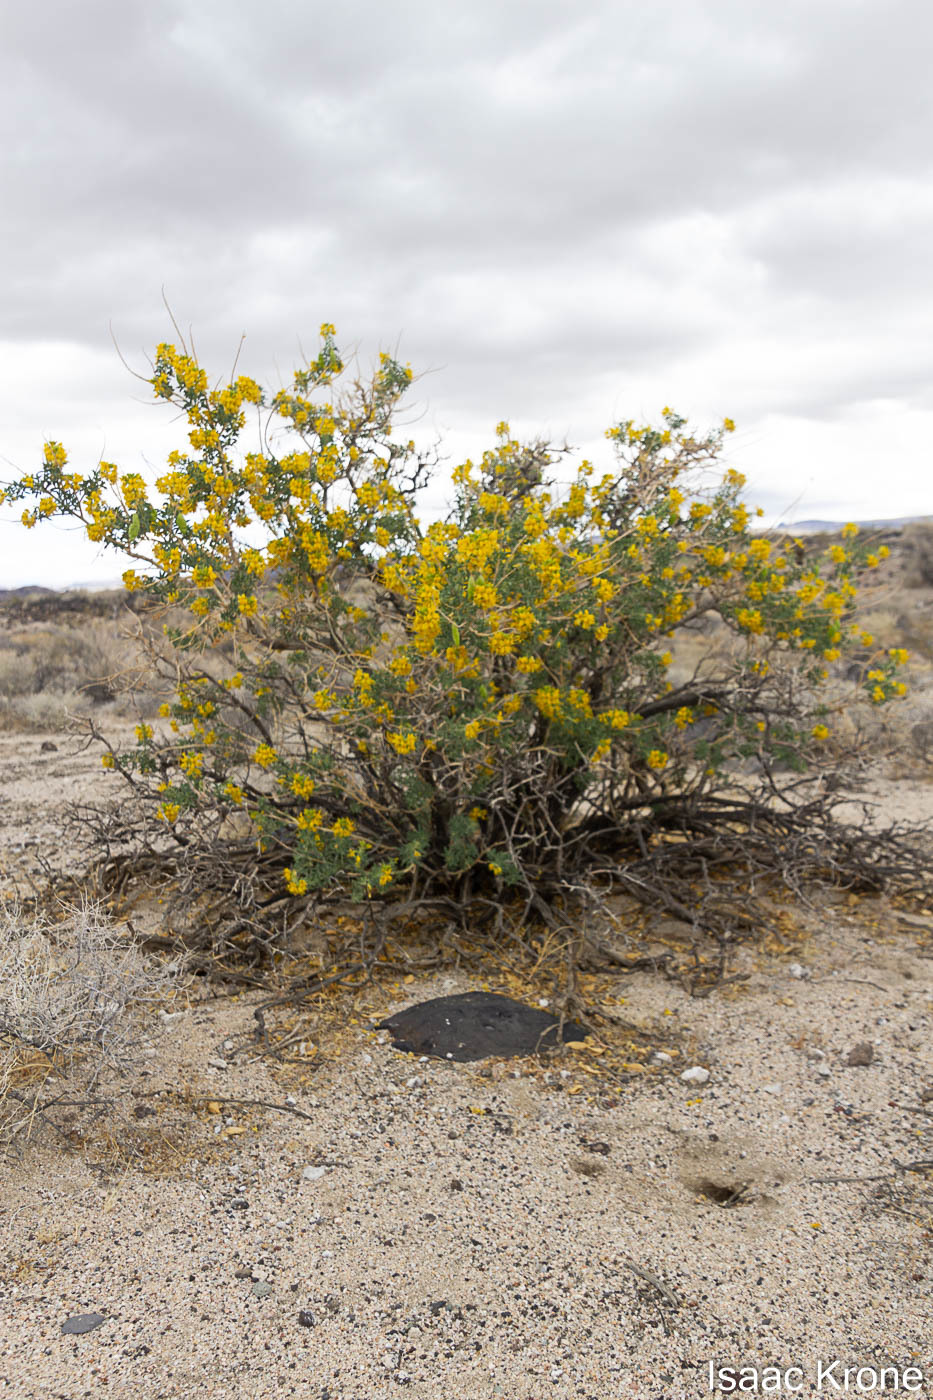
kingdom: Plantae
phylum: Tracheophyta
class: Magnoliopsida
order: Brassicales
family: Cleomaceae
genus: Cleomella
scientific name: Cleomella arborea
